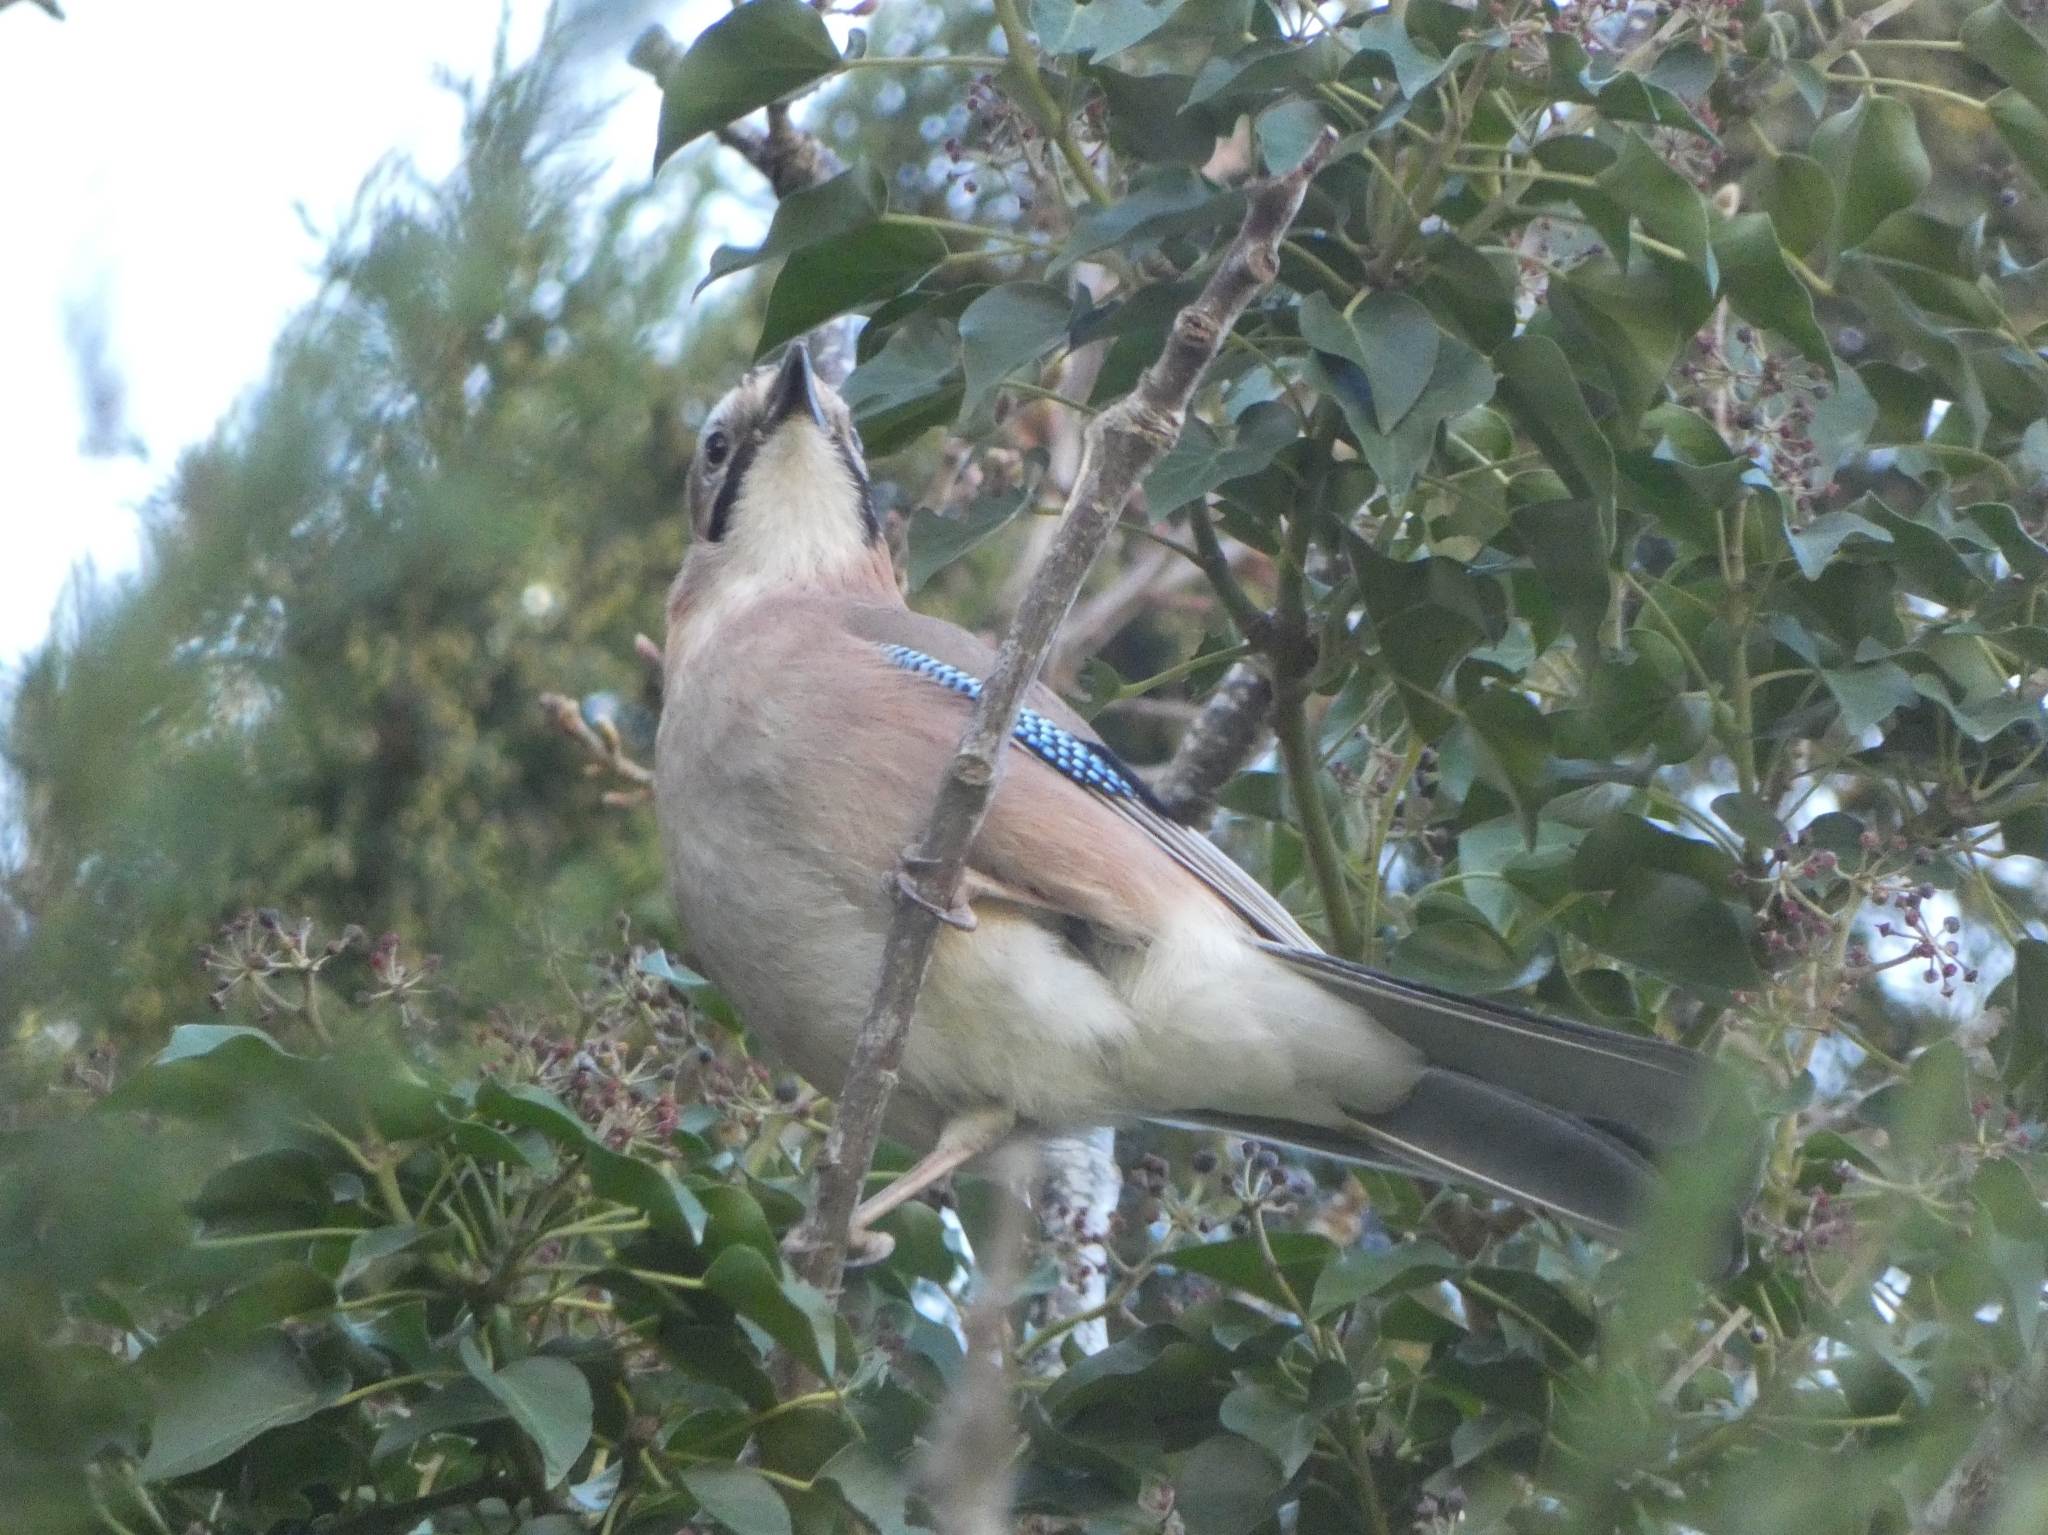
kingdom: Animalia
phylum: Chordata
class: Aves
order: Passeriformes
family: Corvidae
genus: Garrulus
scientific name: Garrulus glandarius
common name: Eurasian jay
